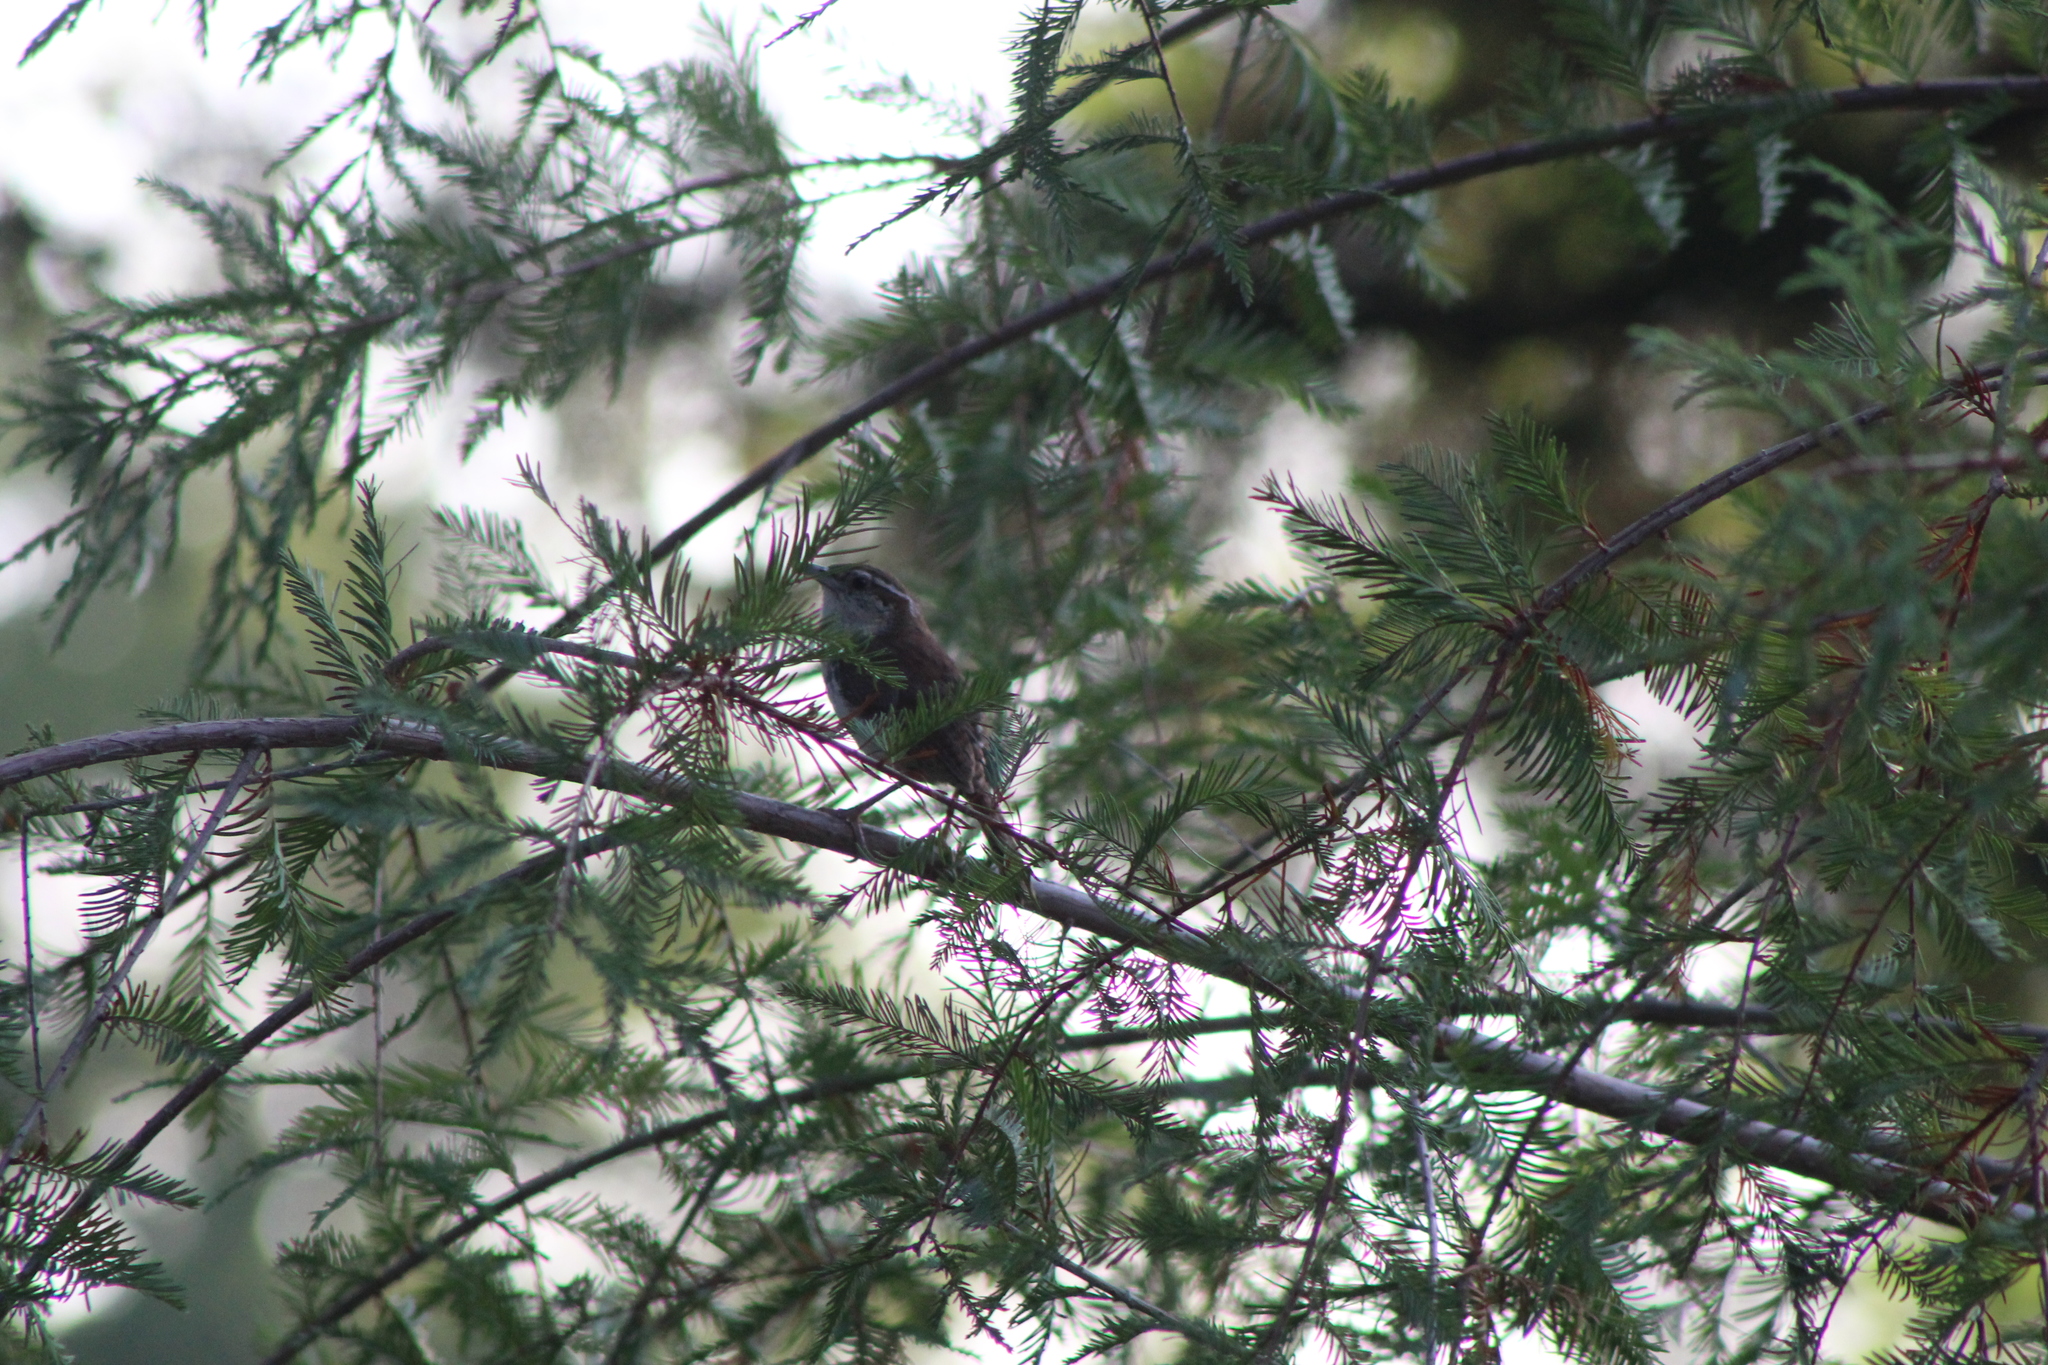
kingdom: Animalia
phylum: Chordata
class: Aves
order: Passeriformes
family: Troglodytidae
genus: Thryothorus
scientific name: Thryothorus ludovicianus
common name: Carolina wren
